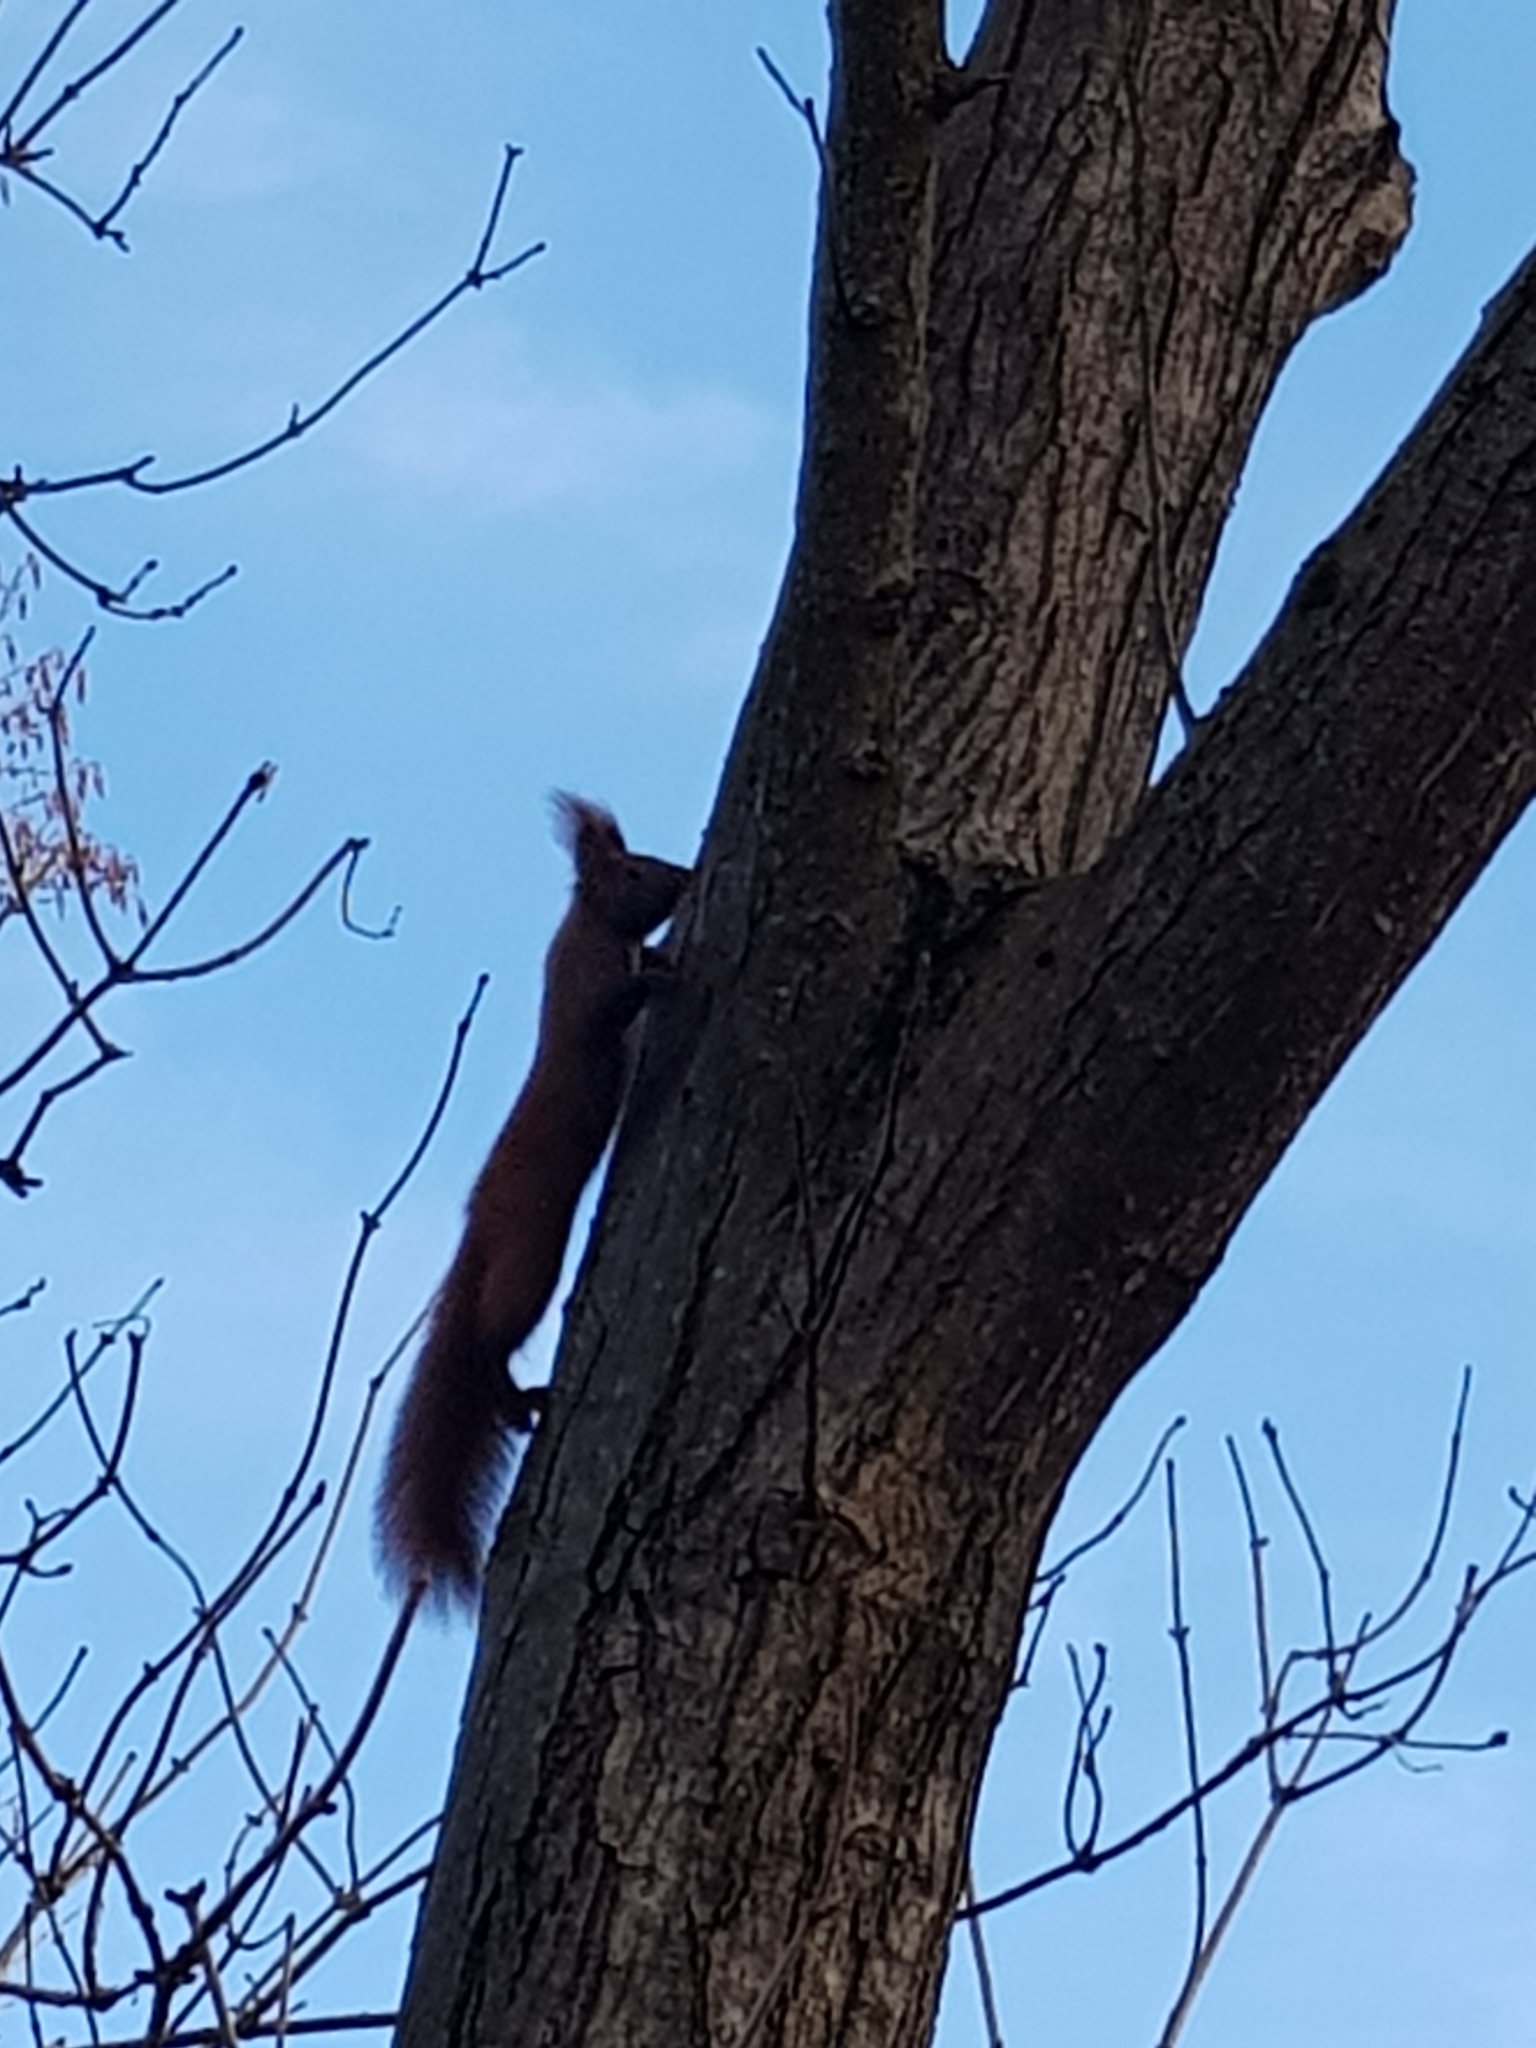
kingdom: Animalia
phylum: Chordata
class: Mammalia
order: Rodentia
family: Sciuridae
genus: Sciurus
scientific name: Sciurus vulgaris
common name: Eurasian red squirrel
